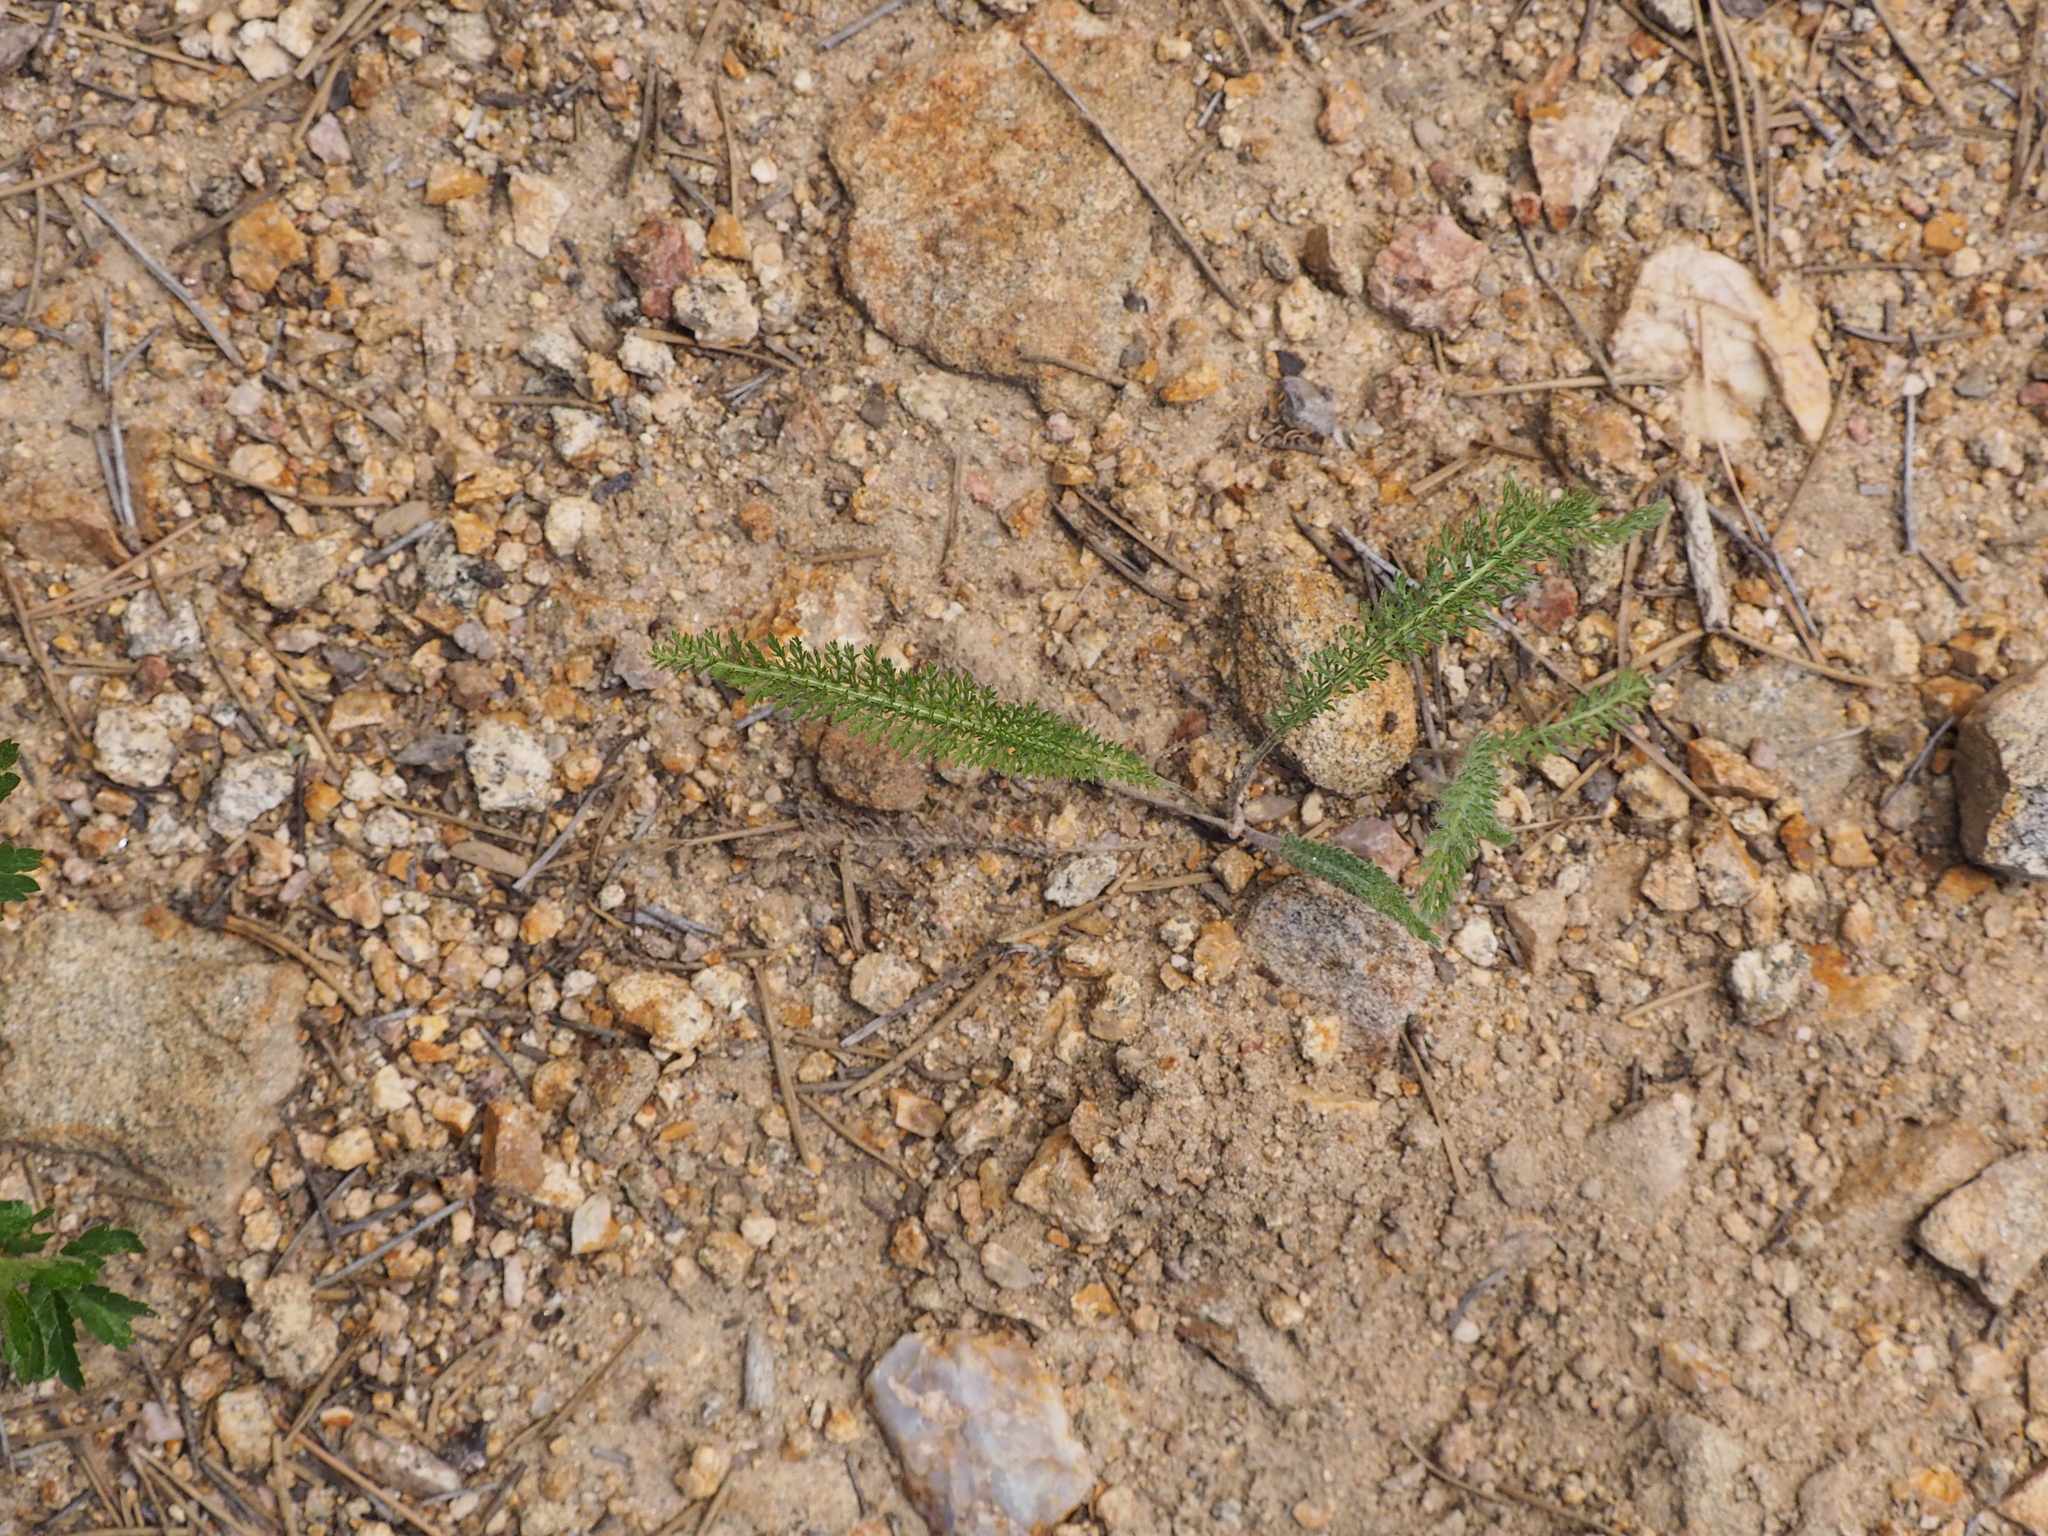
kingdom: Plantae
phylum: Tracheophyta
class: Magnoliopsida
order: Asterales
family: Asteraceae
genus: Achillea
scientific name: Achillea millefolium
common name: Yarrow
